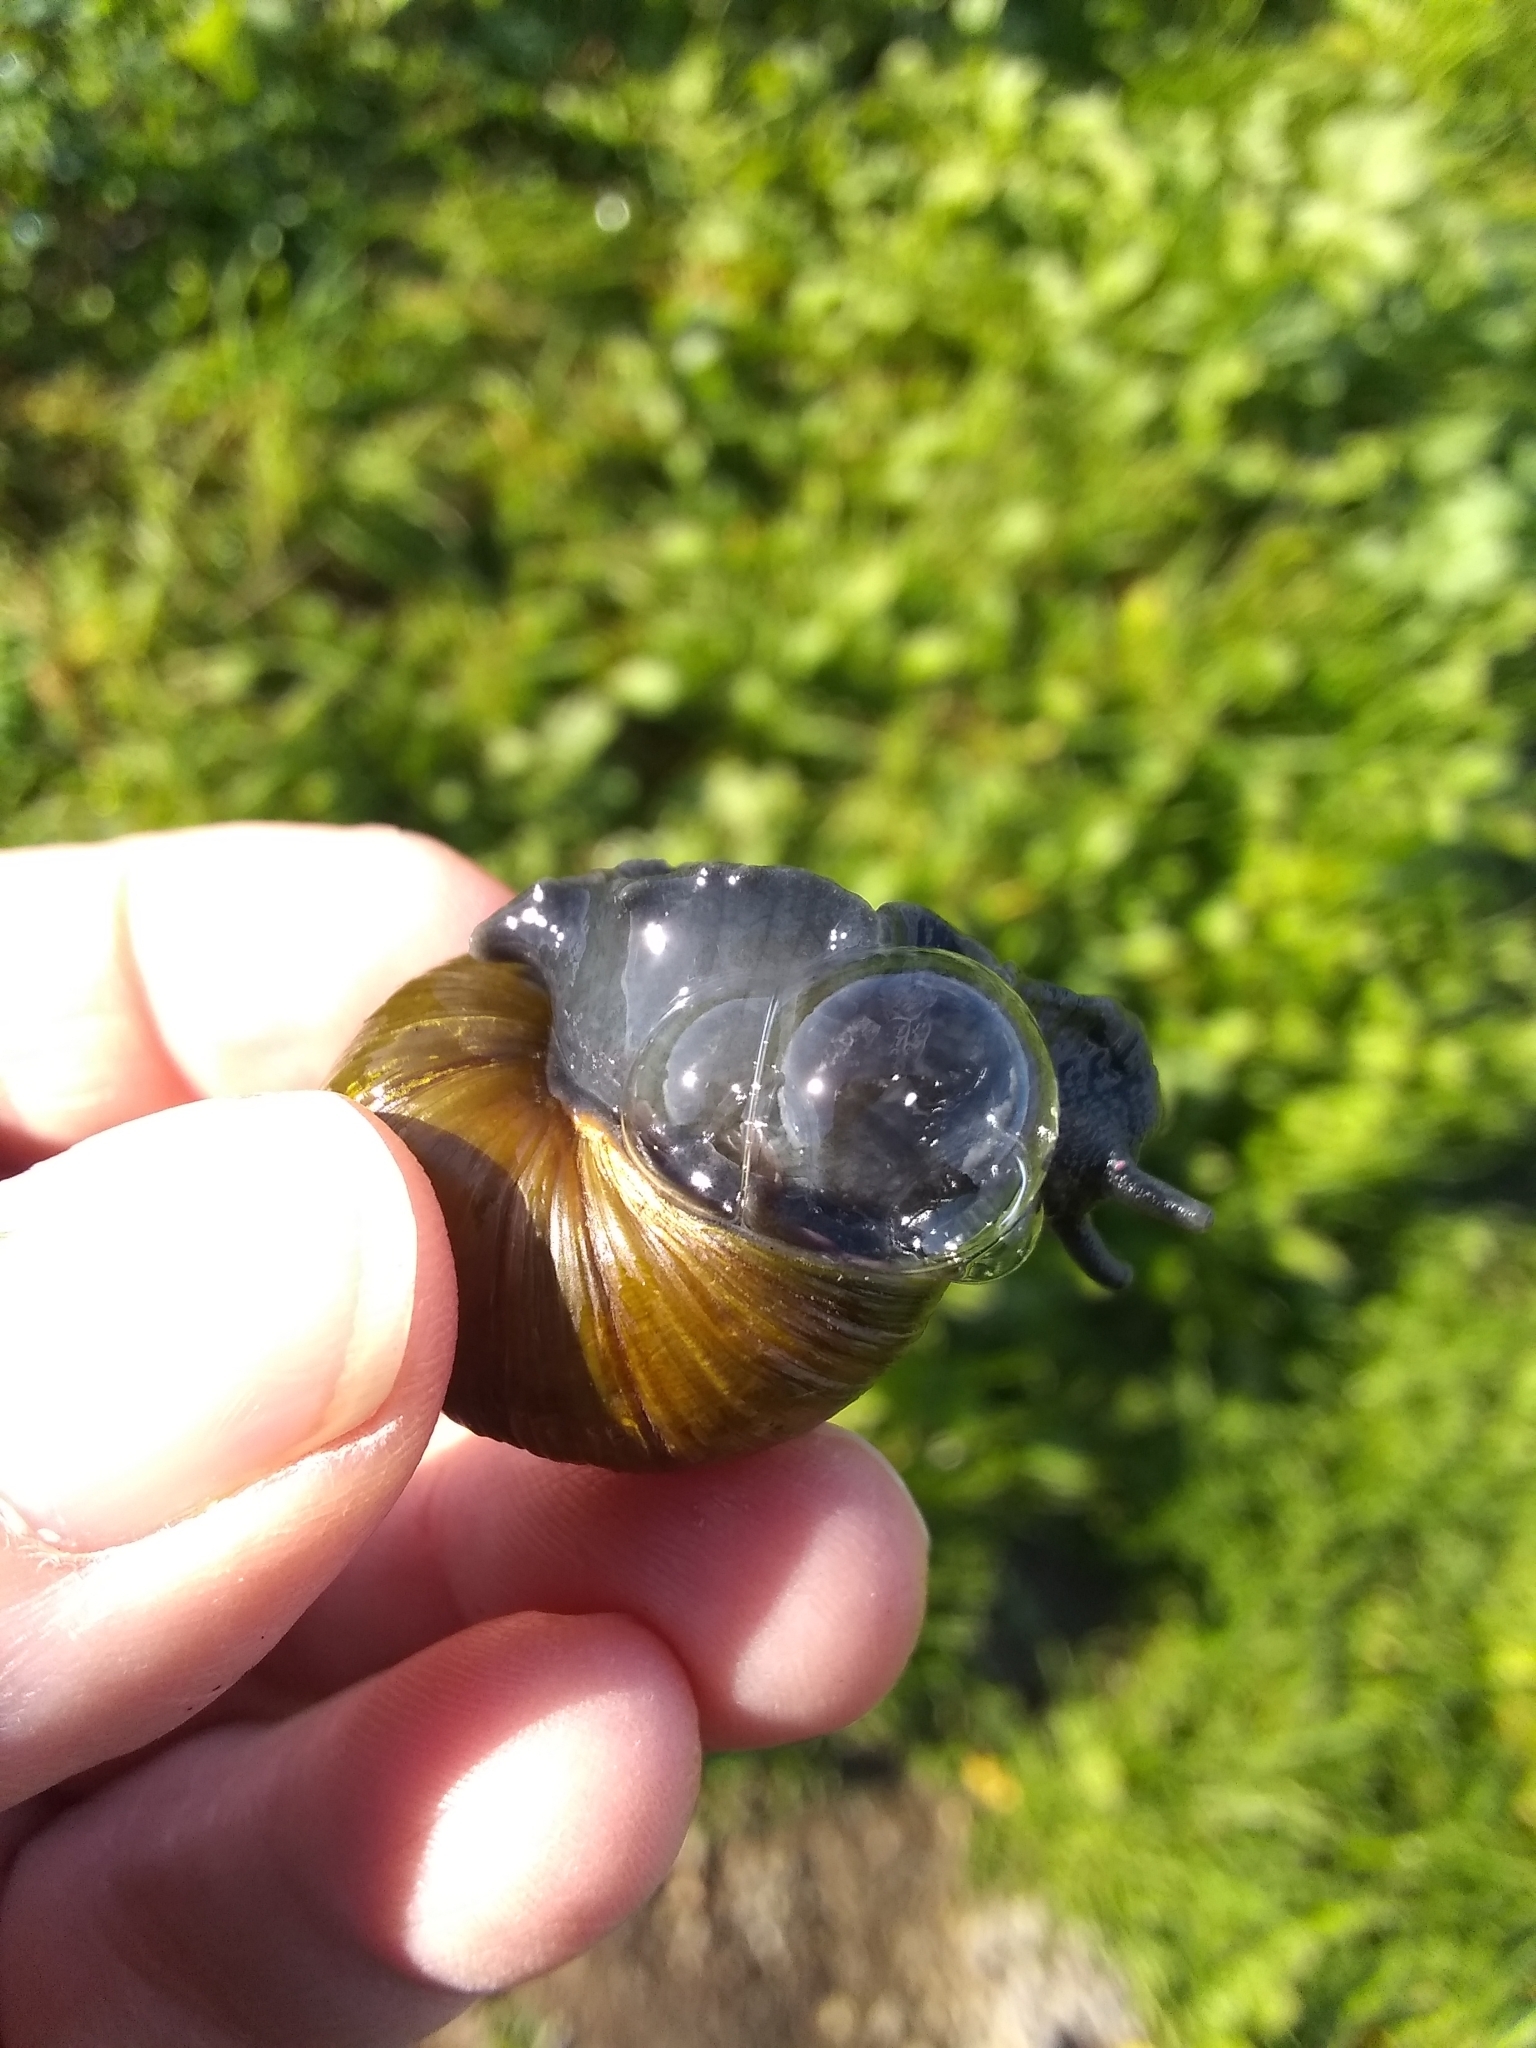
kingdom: Animalia
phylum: Mollusca
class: Gastropoda
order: Stylommatophora
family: Helicidae
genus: Cantareus
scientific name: Cantareus apertus
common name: Green gardensnail
